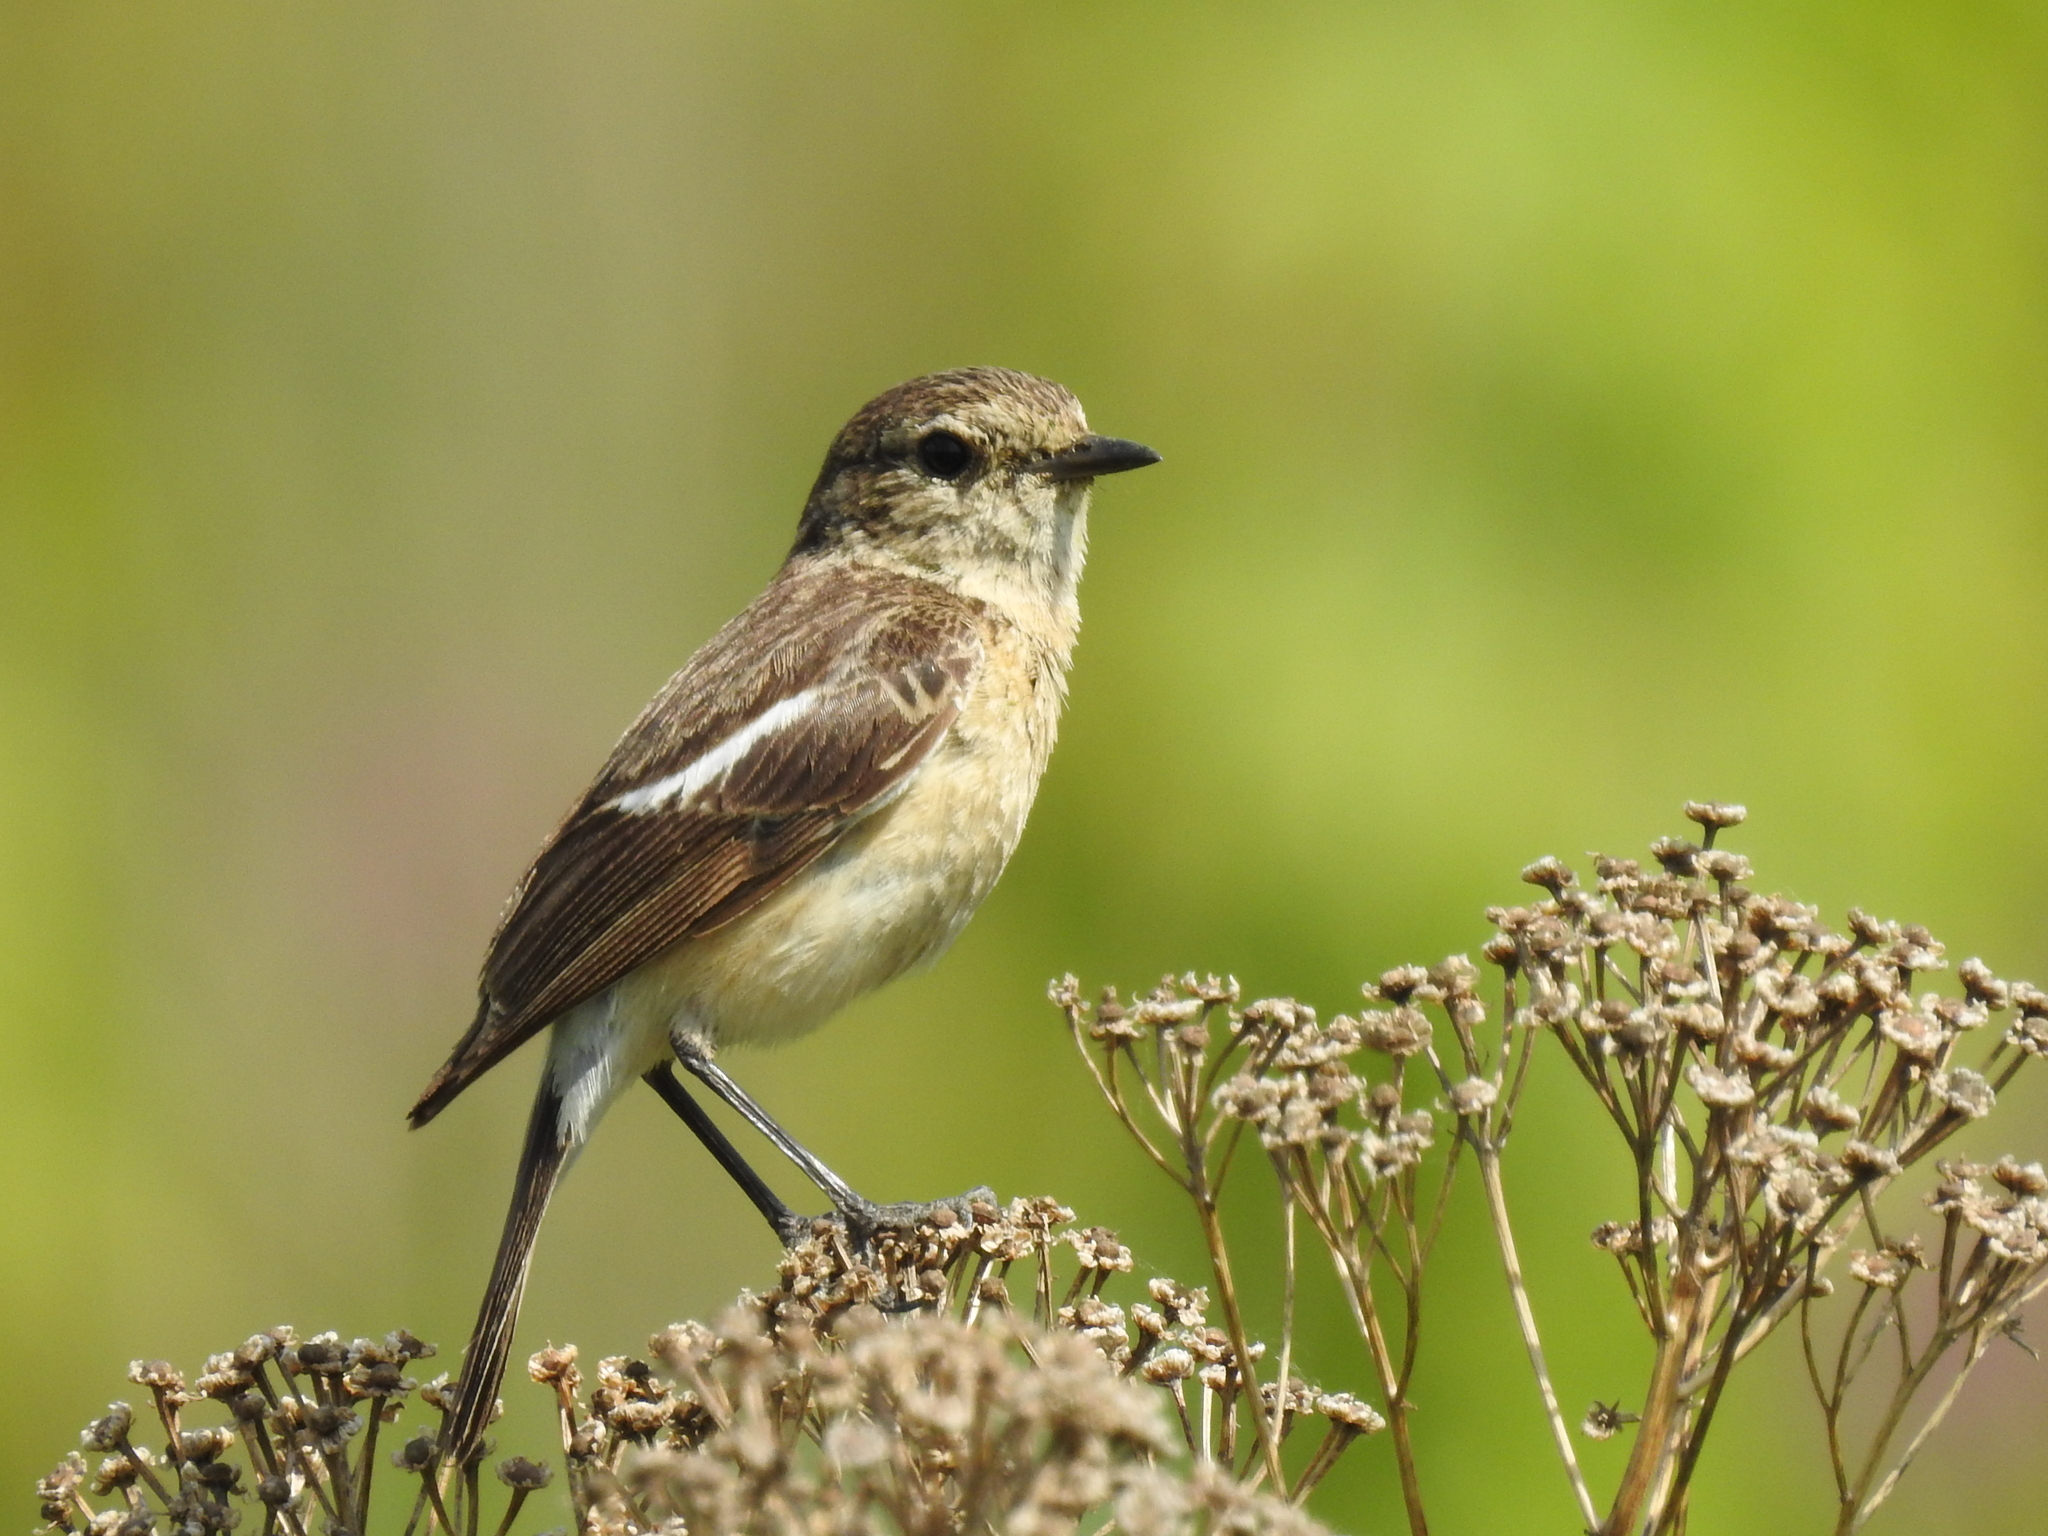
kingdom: Animalia
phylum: Chordata
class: Aves
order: Passeriformes
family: Muscicapidae
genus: Saxicola
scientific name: Saxicola maurus
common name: Siberian stonechat
